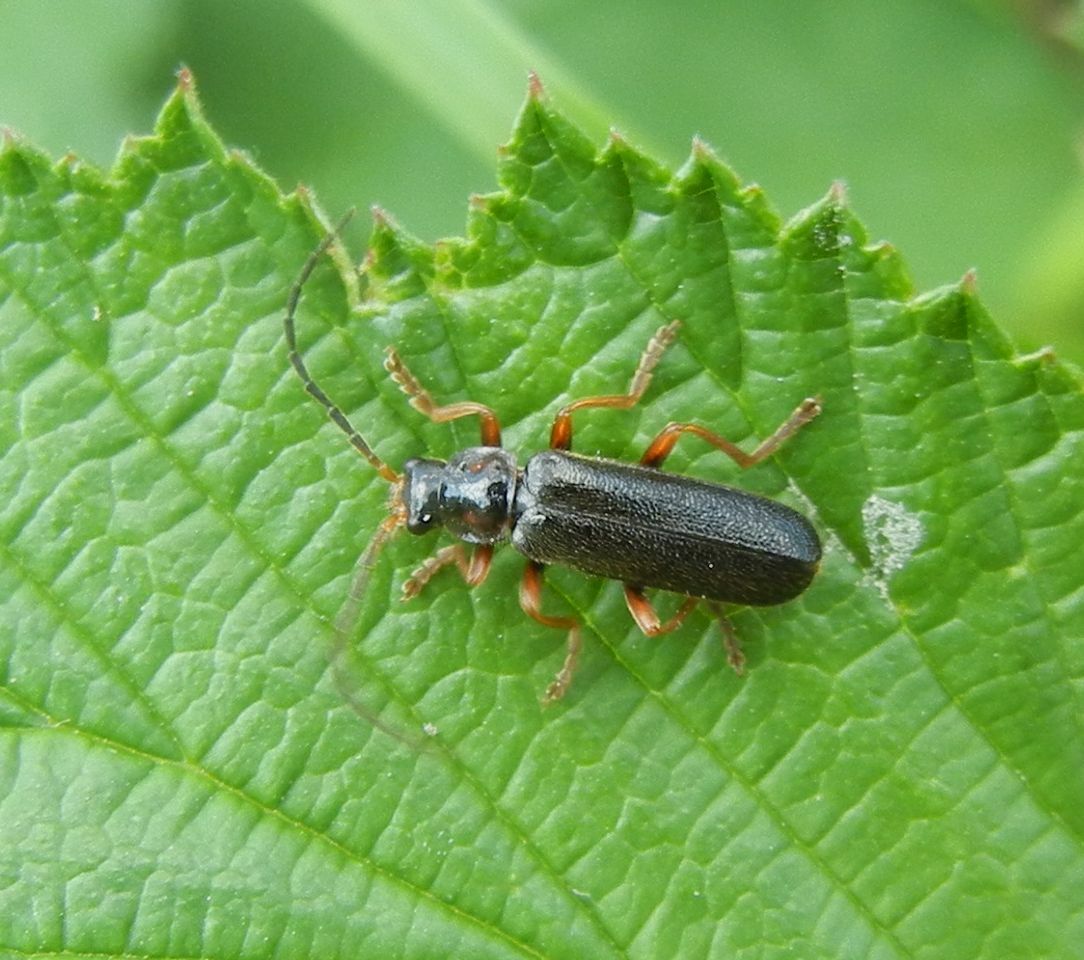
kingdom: Animalia
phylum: Arthropoda
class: Insecta
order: Coleoptera
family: Cantharidae
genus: Cantharis
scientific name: Cantharis flavilabris
